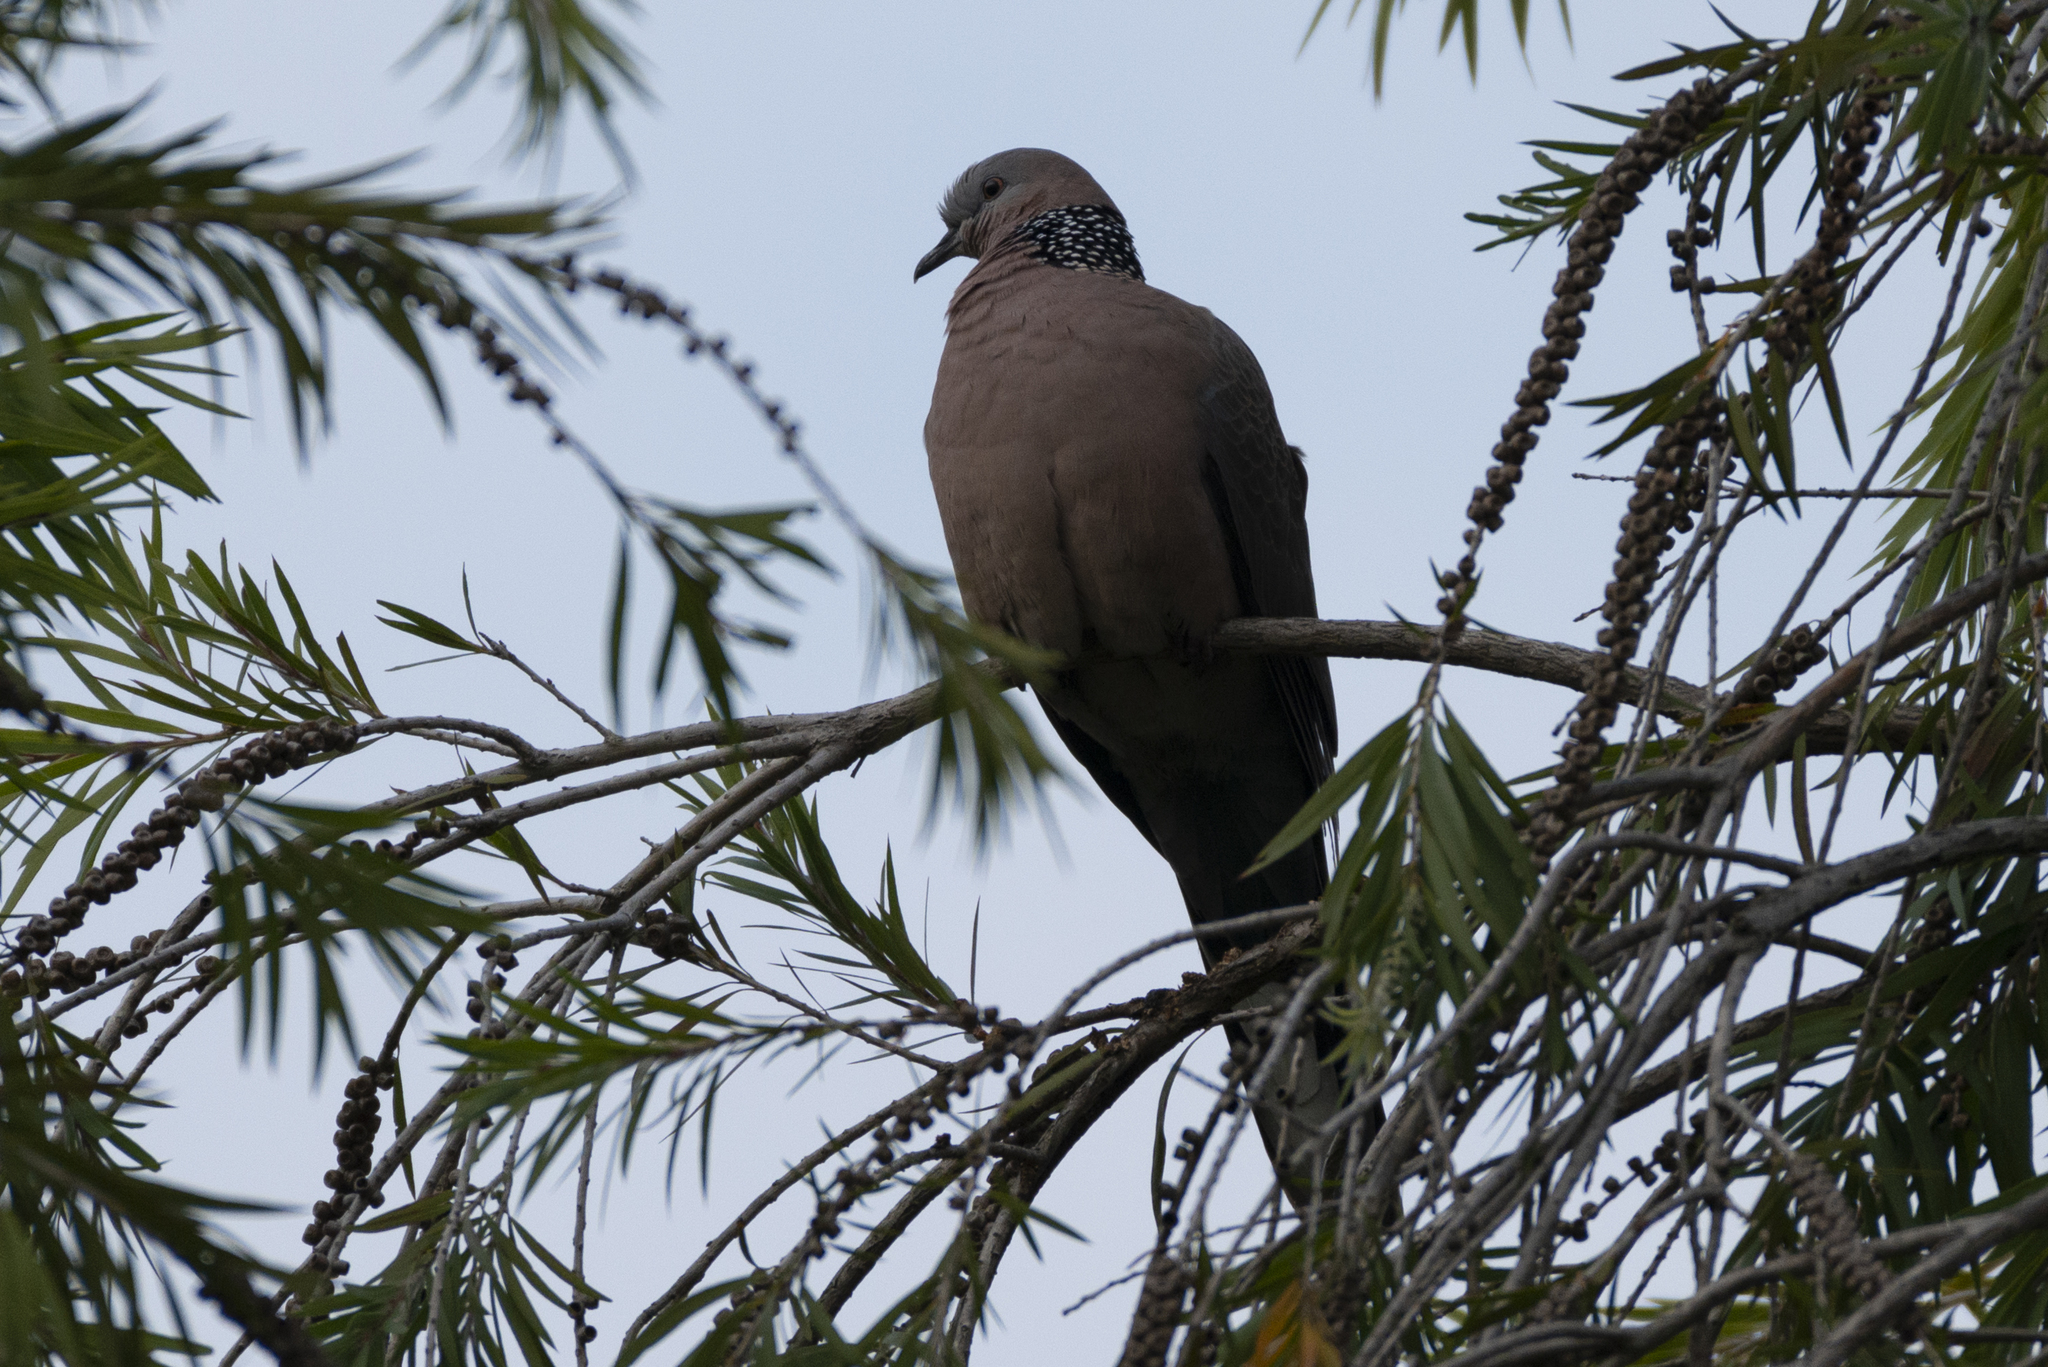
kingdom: Animalia
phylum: Chordata
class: Aves
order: Columbiformes
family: Columbidae
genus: Spilopelia
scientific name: Spilopelia chinensis
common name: Spotted dove
